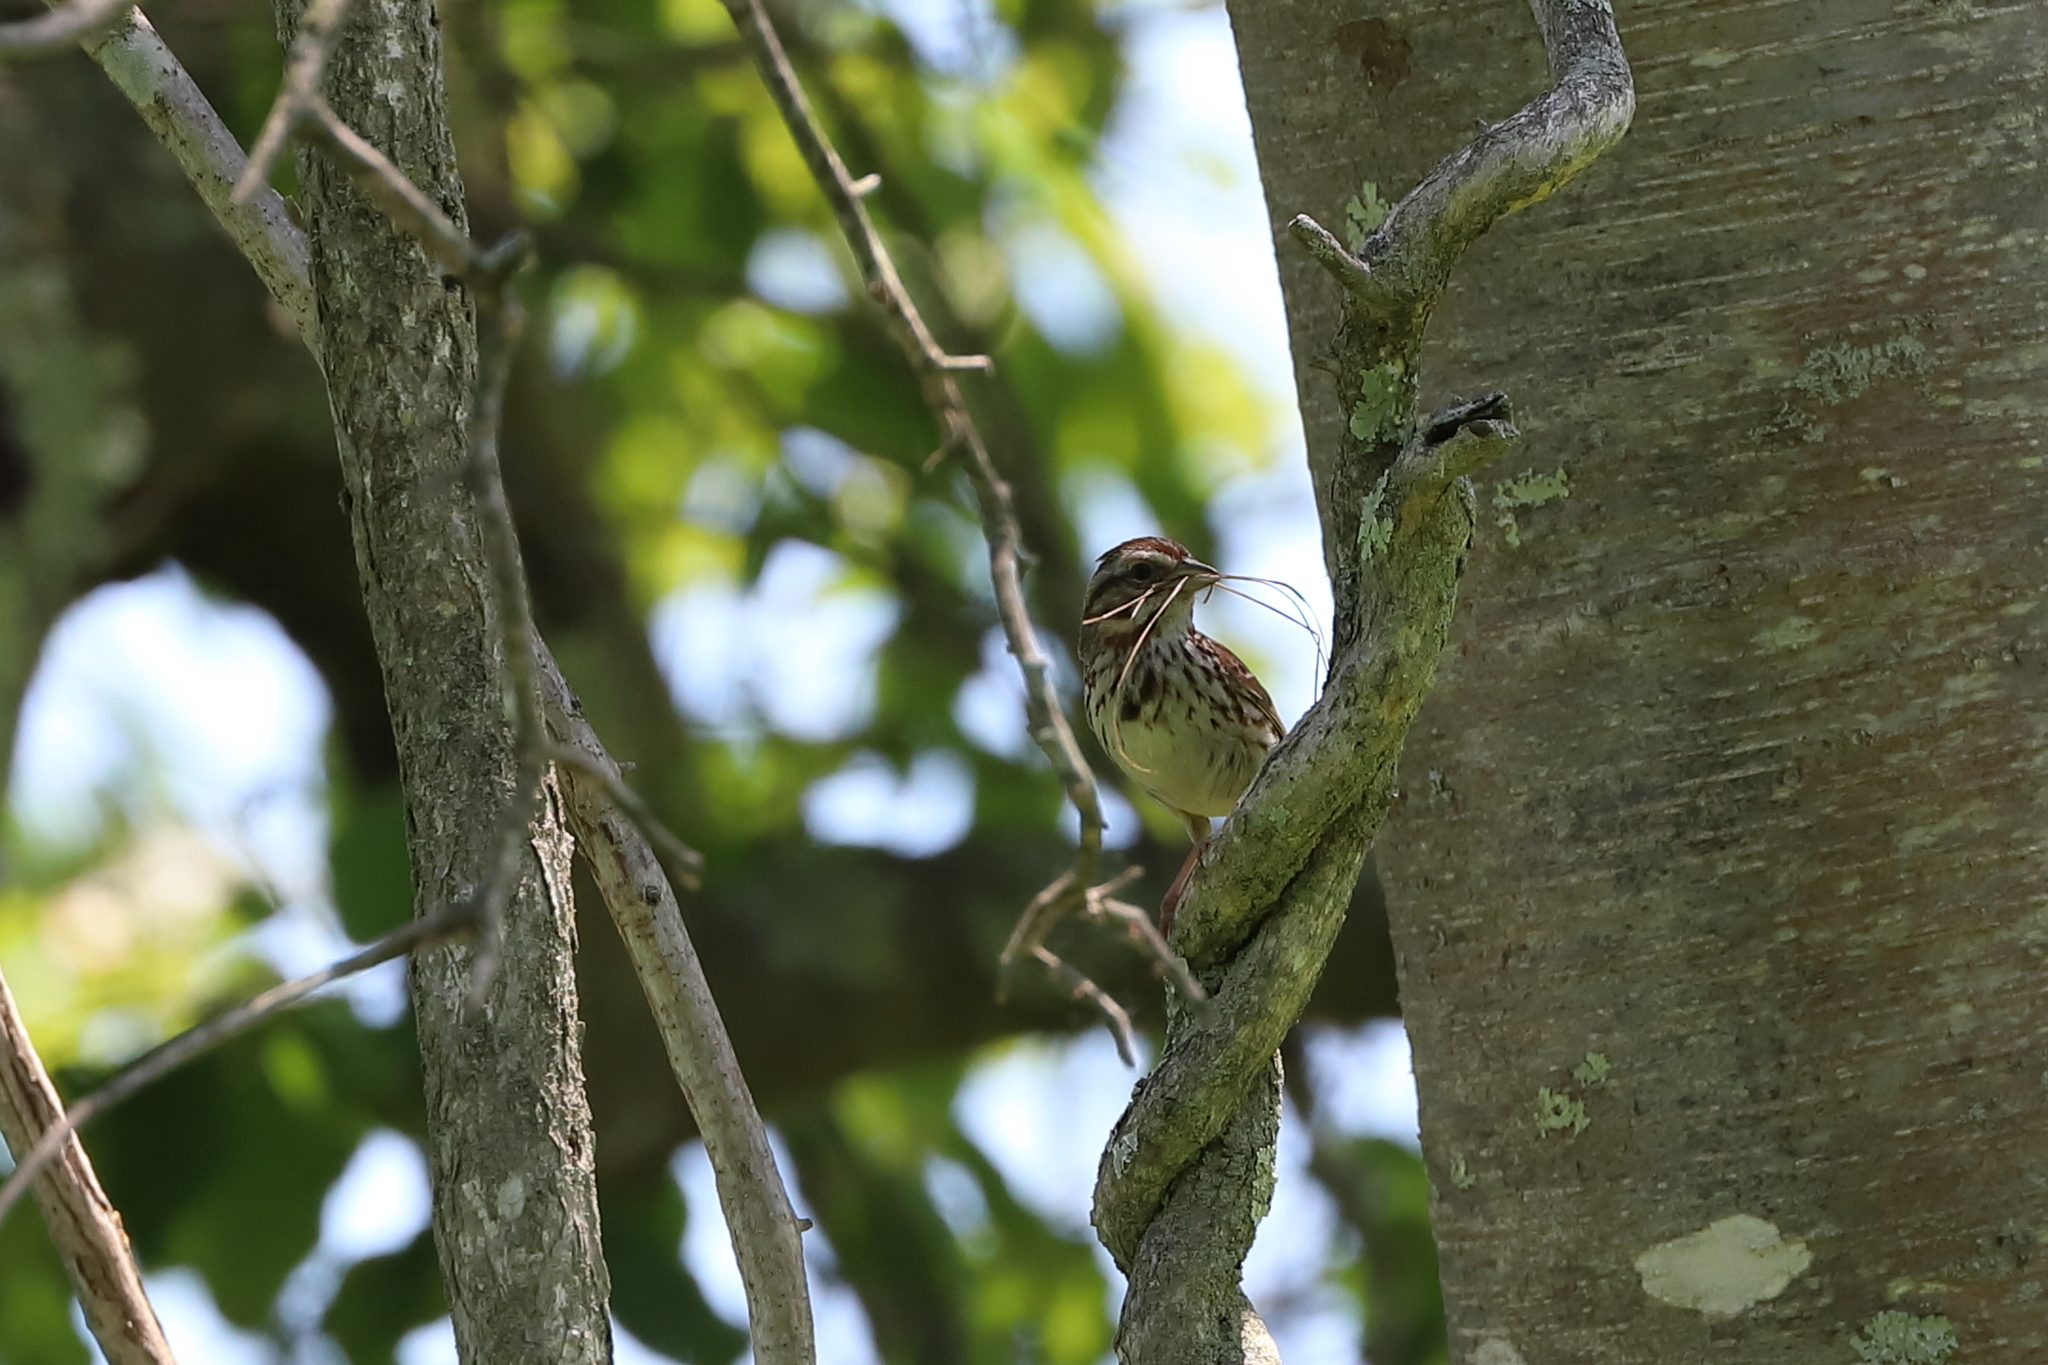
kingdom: Animalia
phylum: Chordata
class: Aves
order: Passeriformes
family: Passerellidae
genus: Melospiza
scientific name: Melospiza melodia
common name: Song sparrow
